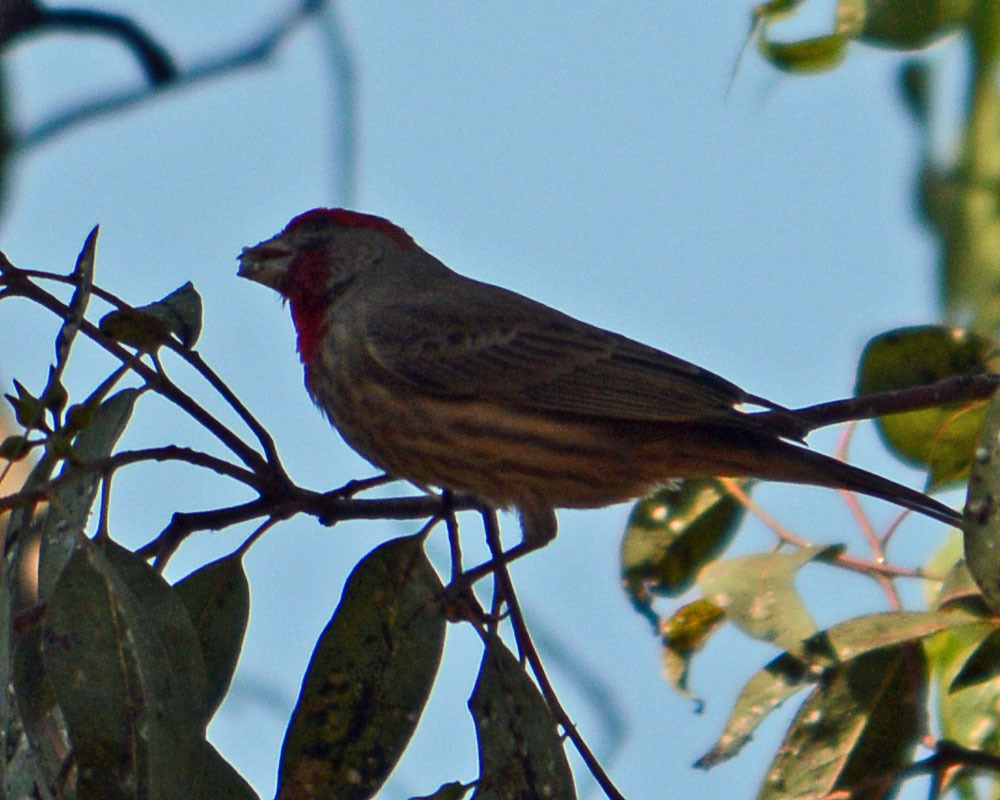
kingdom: Animalia
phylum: Chordata
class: Aves
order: Passeriformes
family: Fringillidae
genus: Haemorhous
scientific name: Haemorhous mexicanus
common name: House finch
